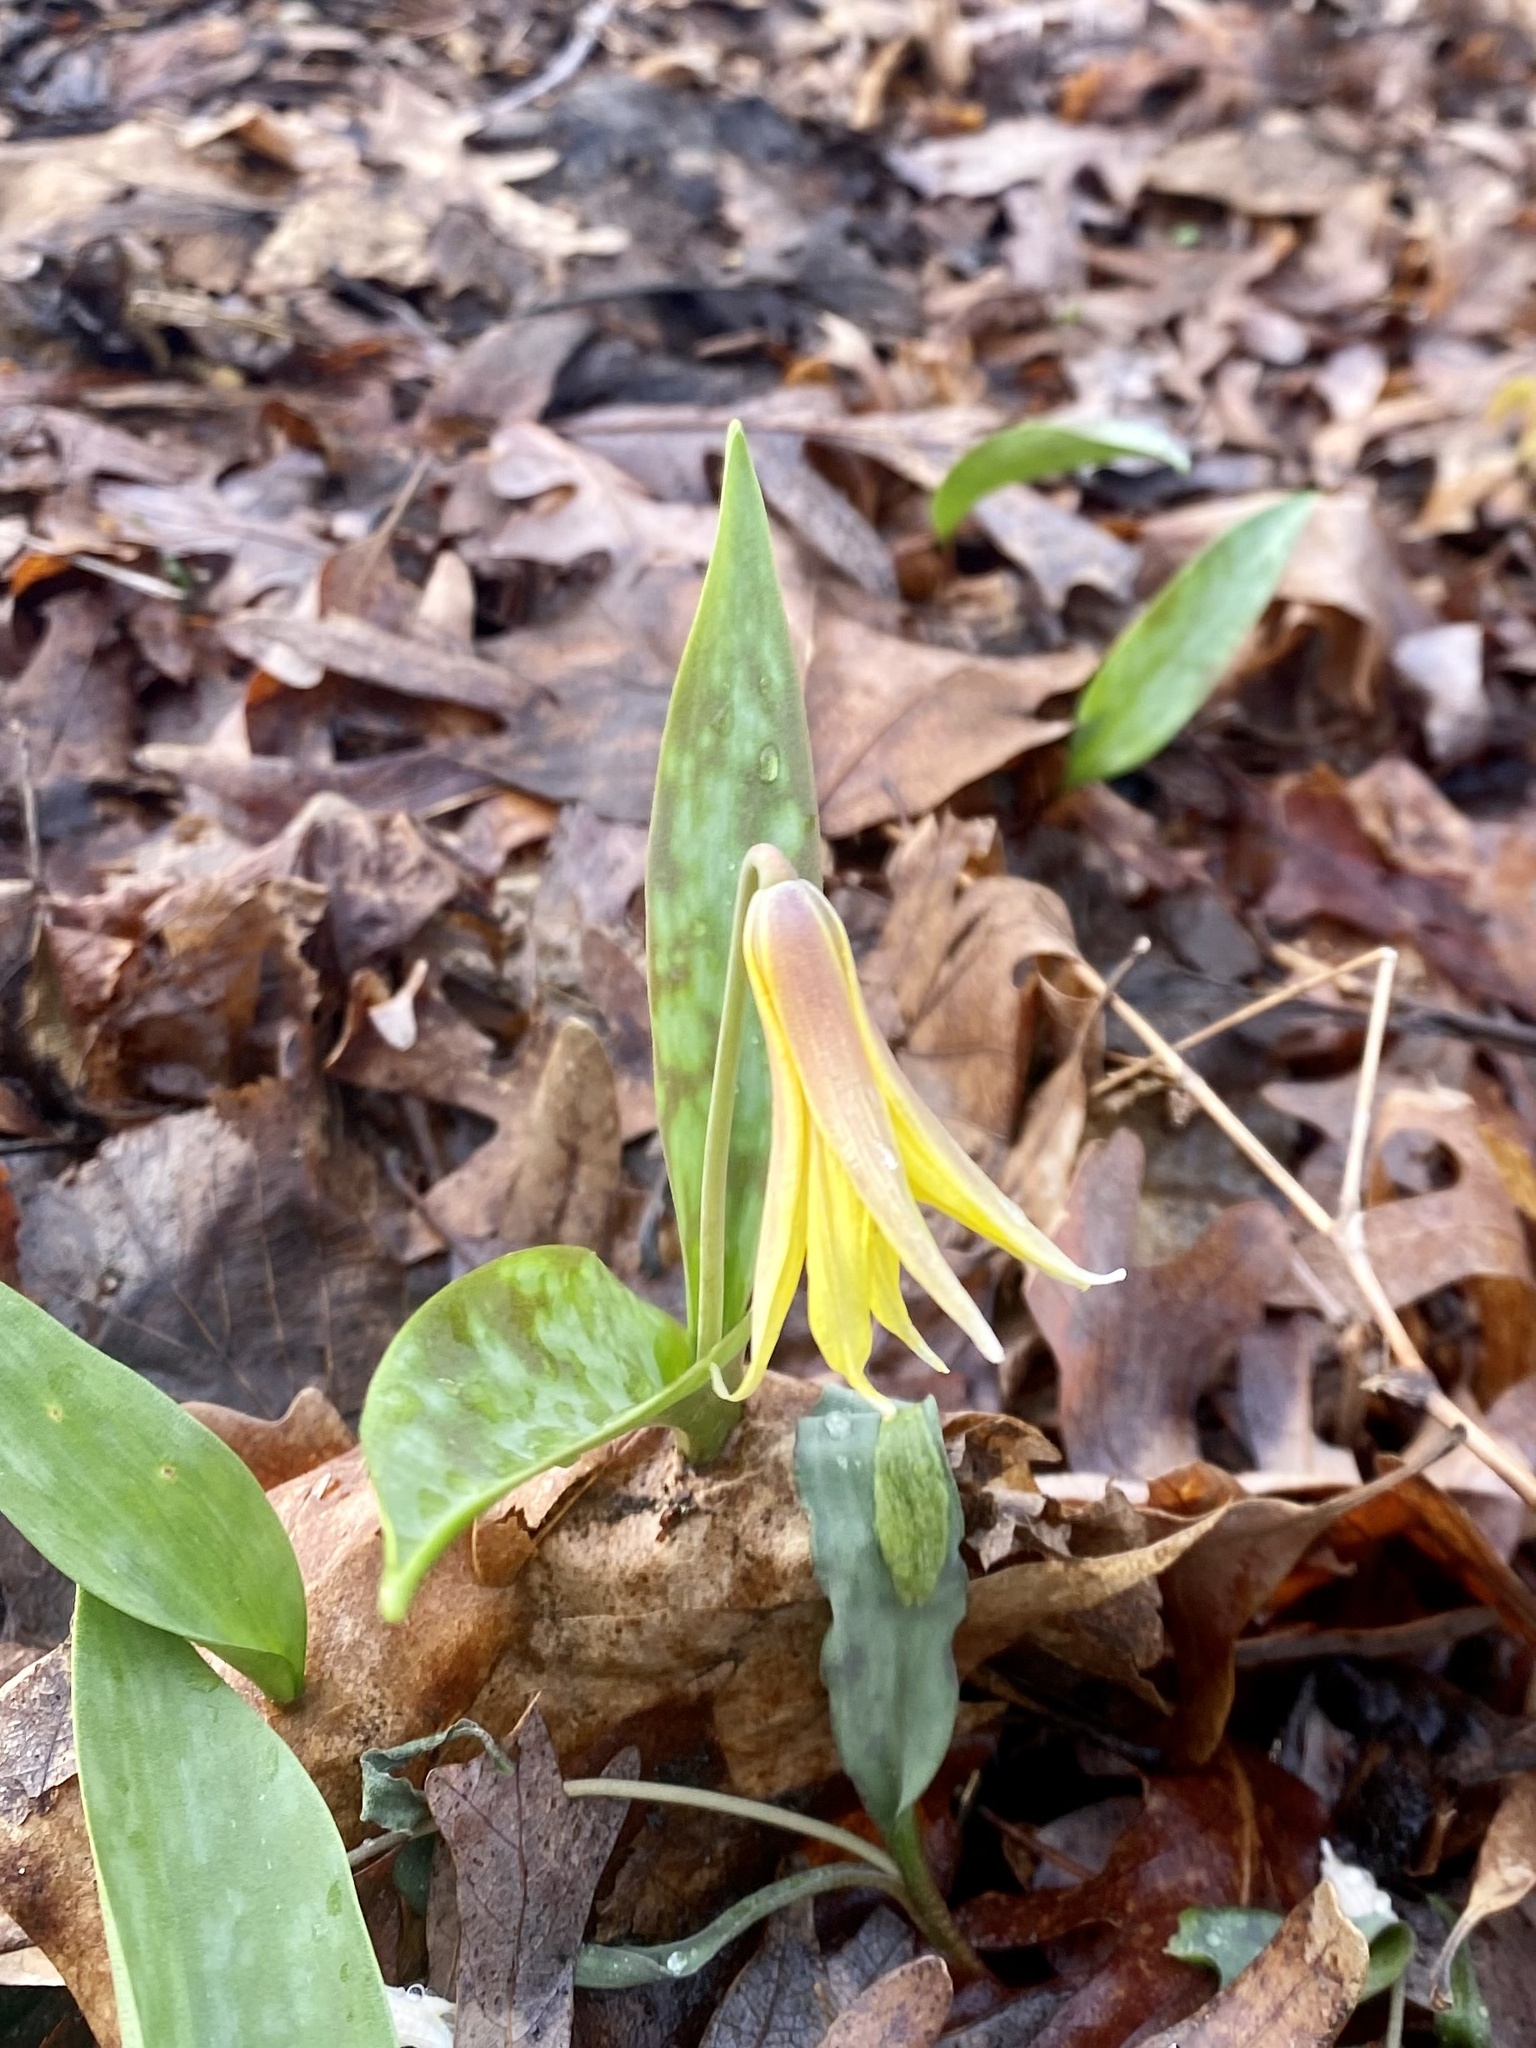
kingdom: Plantae
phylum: Tracheophyta
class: Liliopsida
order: Liliales
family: Liliaceae
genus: Erythronium
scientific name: Erythronium americanum
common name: Yellow adder's-tongue
